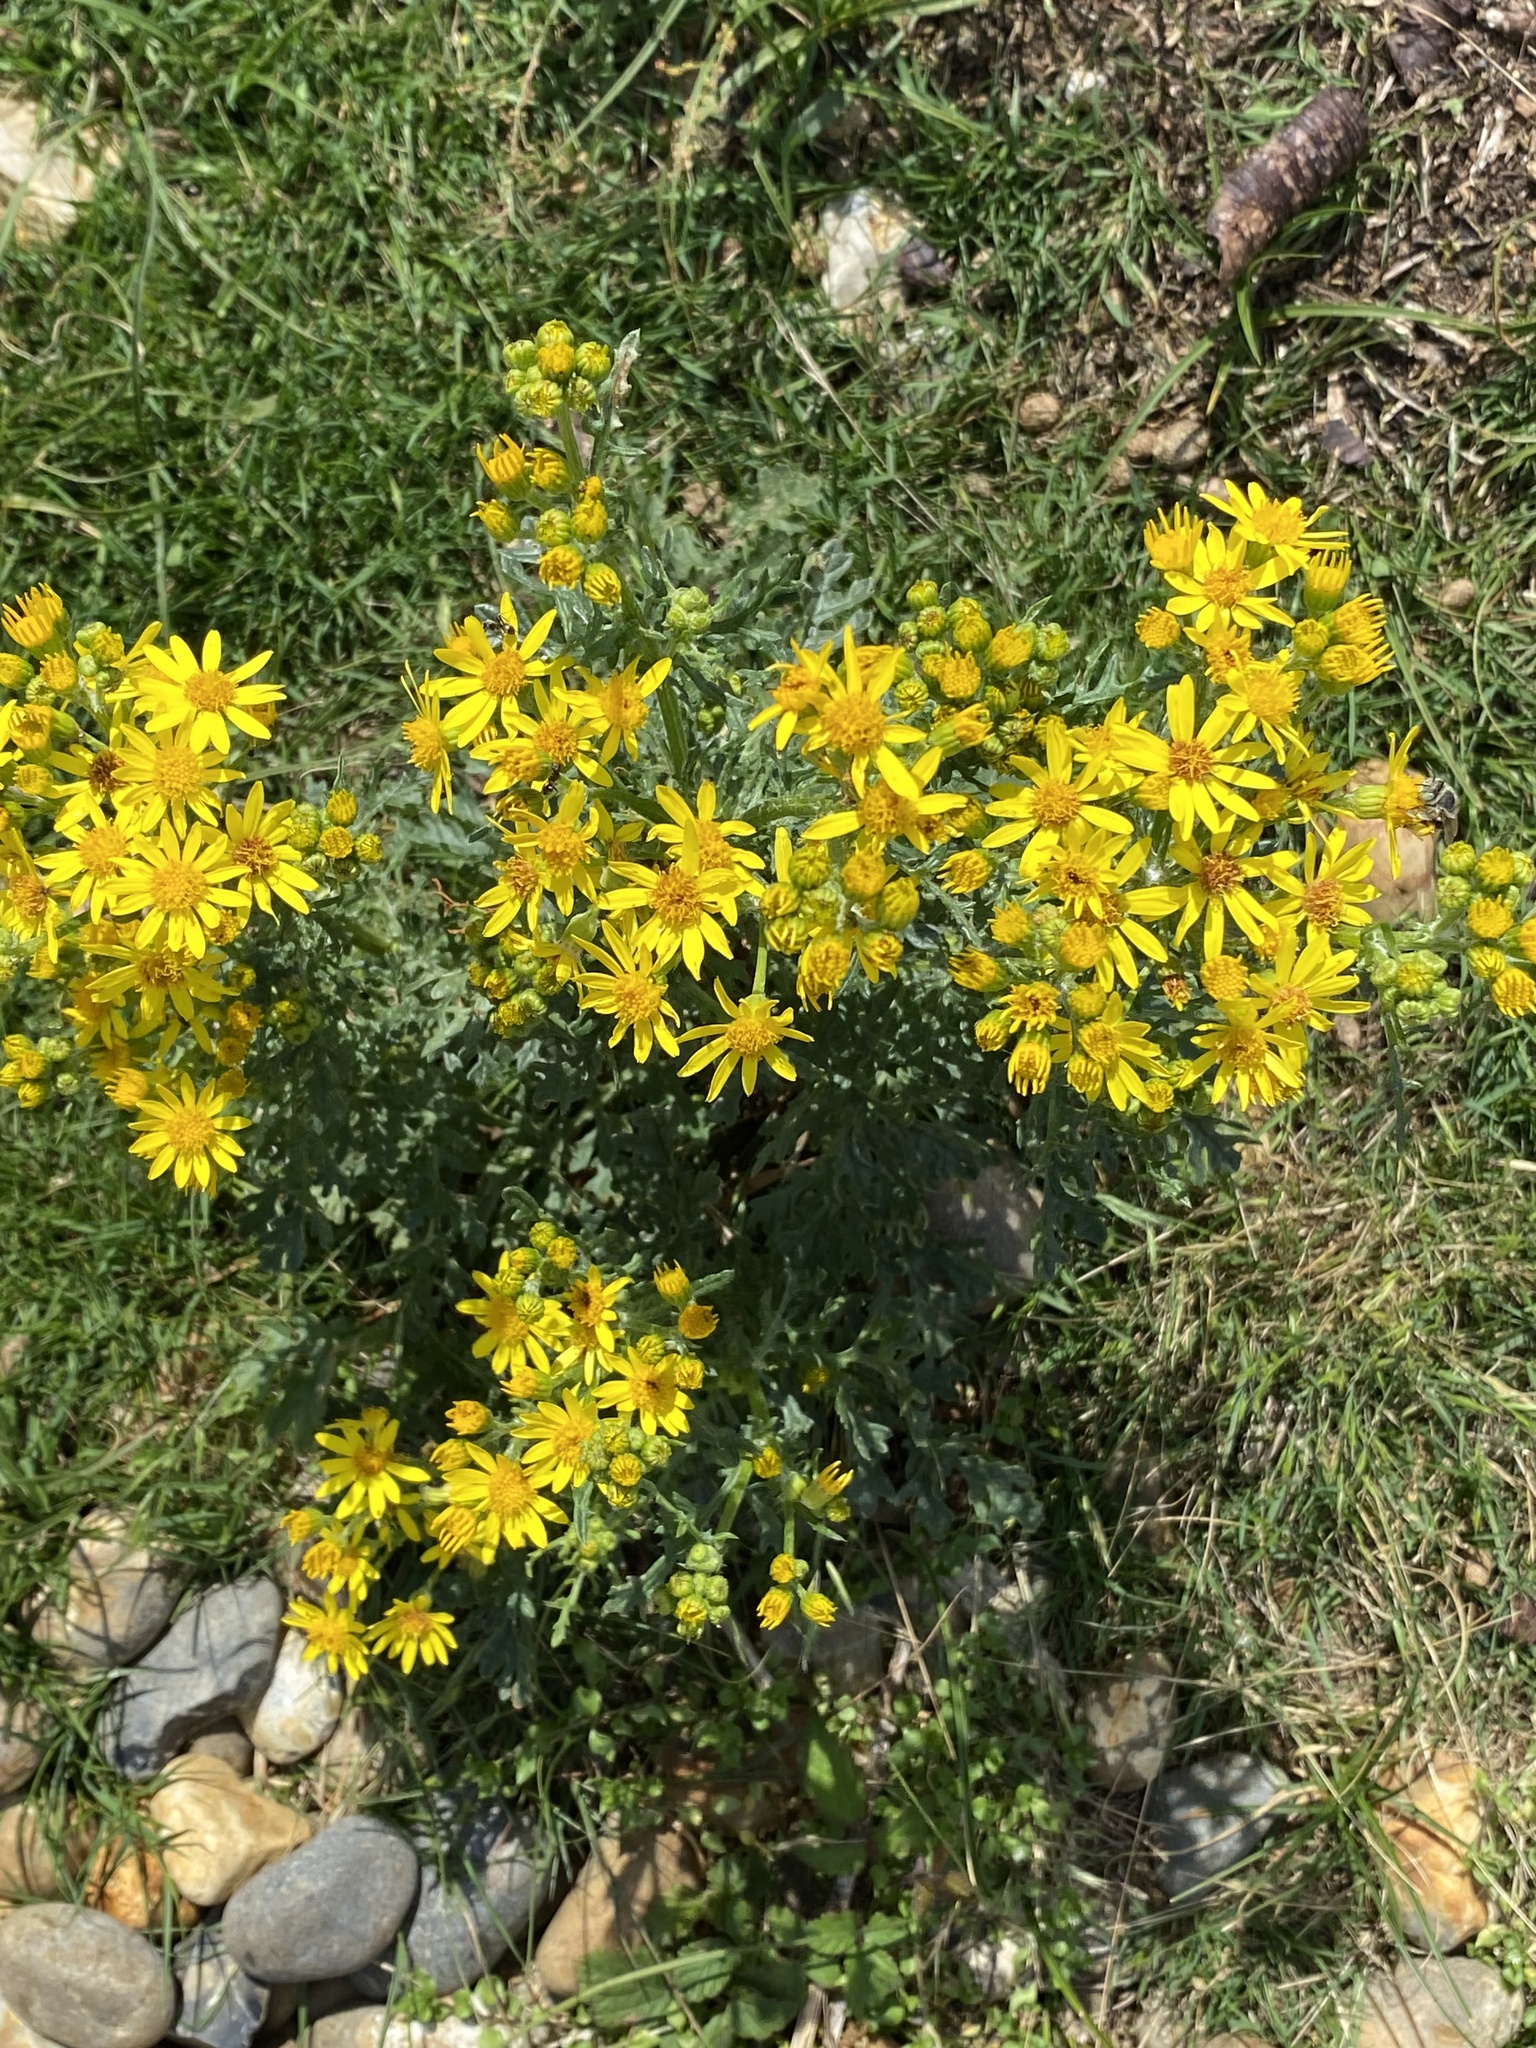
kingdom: Plantae
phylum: Tracheophyta
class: Magnoliopsida
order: Asterales
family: Asteraceae
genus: Jacobaea
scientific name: Jacobaea vulgaris
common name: Stinking willie
